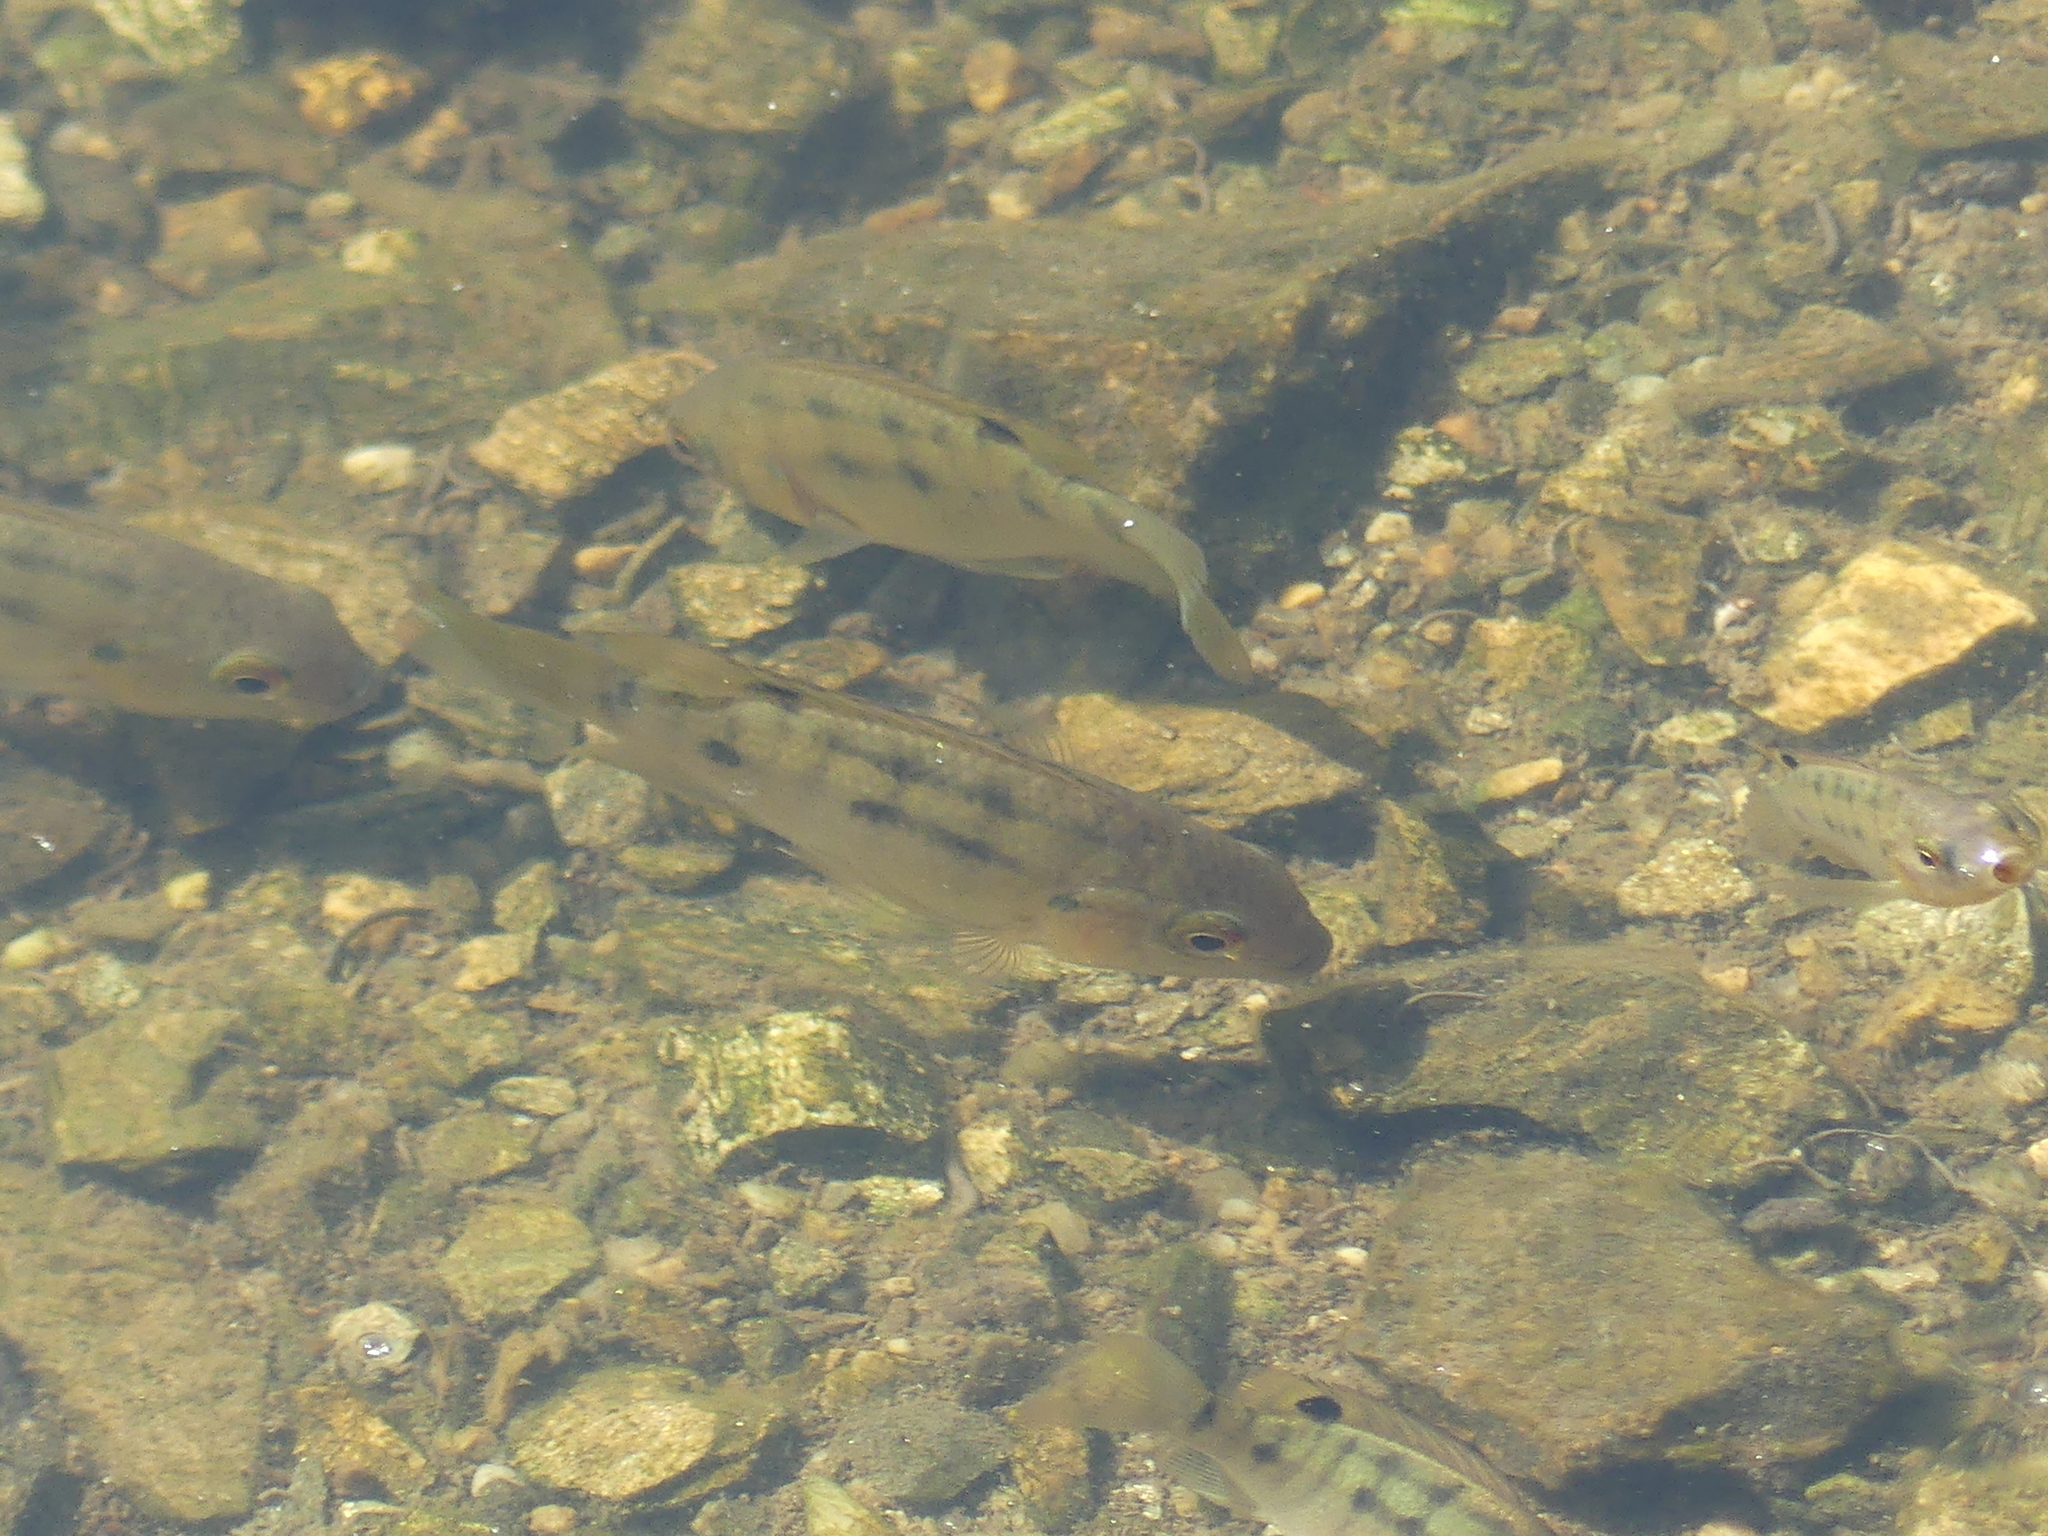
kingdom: Animalia
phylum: Chordata
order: Perciformes
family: Cichlidae
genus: Oreochromis
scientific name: Oreochromis mossambicus
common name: Mozambique tilapia
